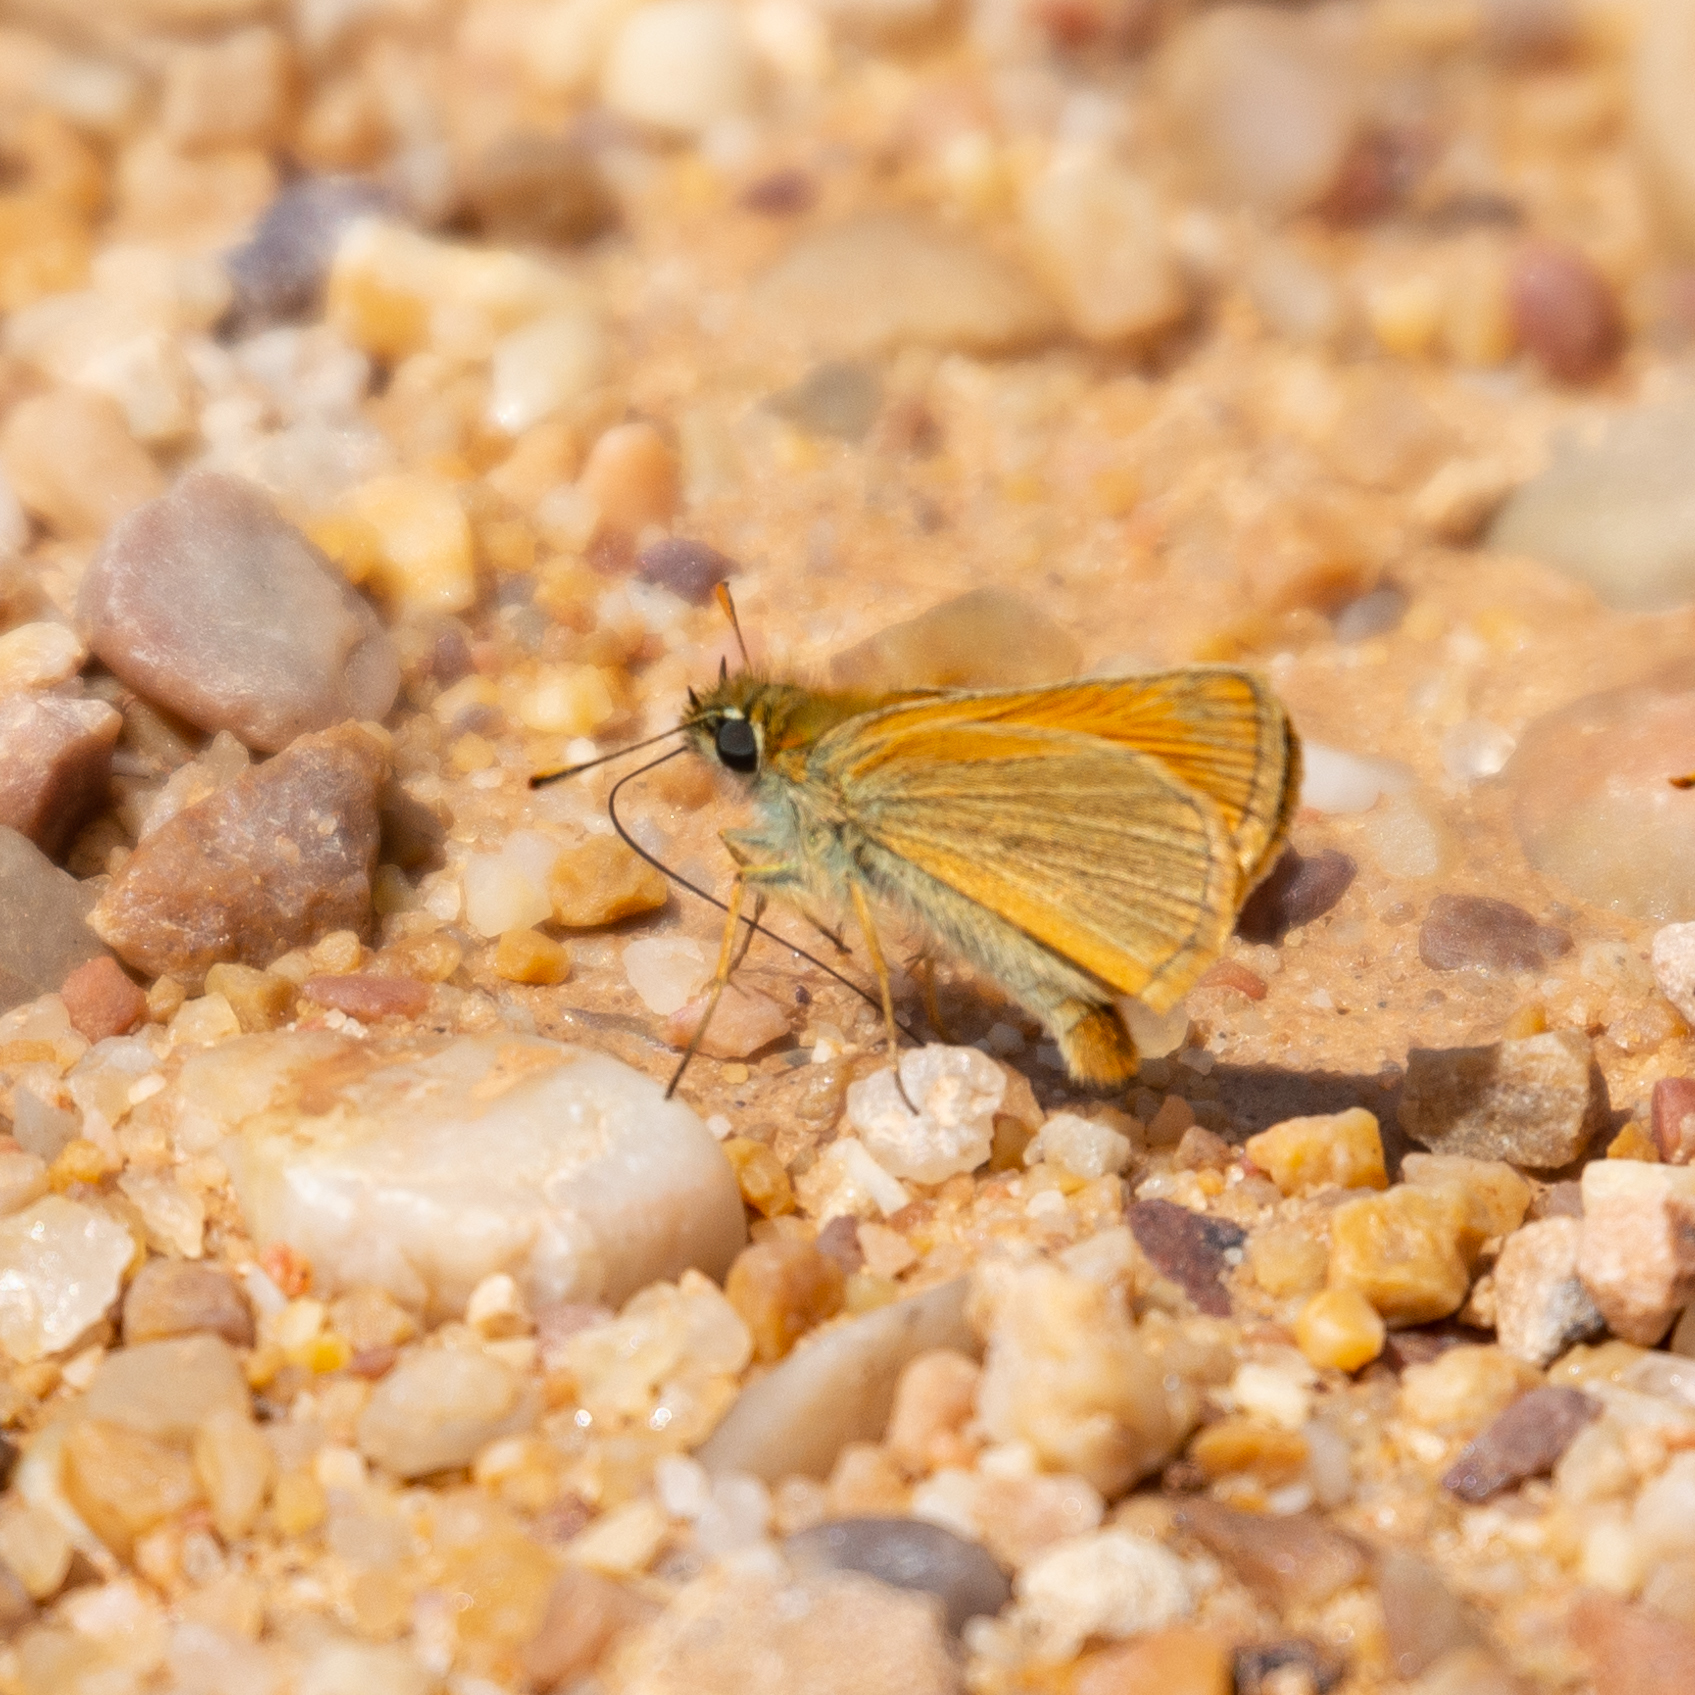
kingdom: Animalia
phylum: Arthropoda
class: Insecta
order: Lepidoptera
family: Hesperiidae
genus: Thymelicus
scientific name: Thymelicus sylvestris
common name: Small skipper
